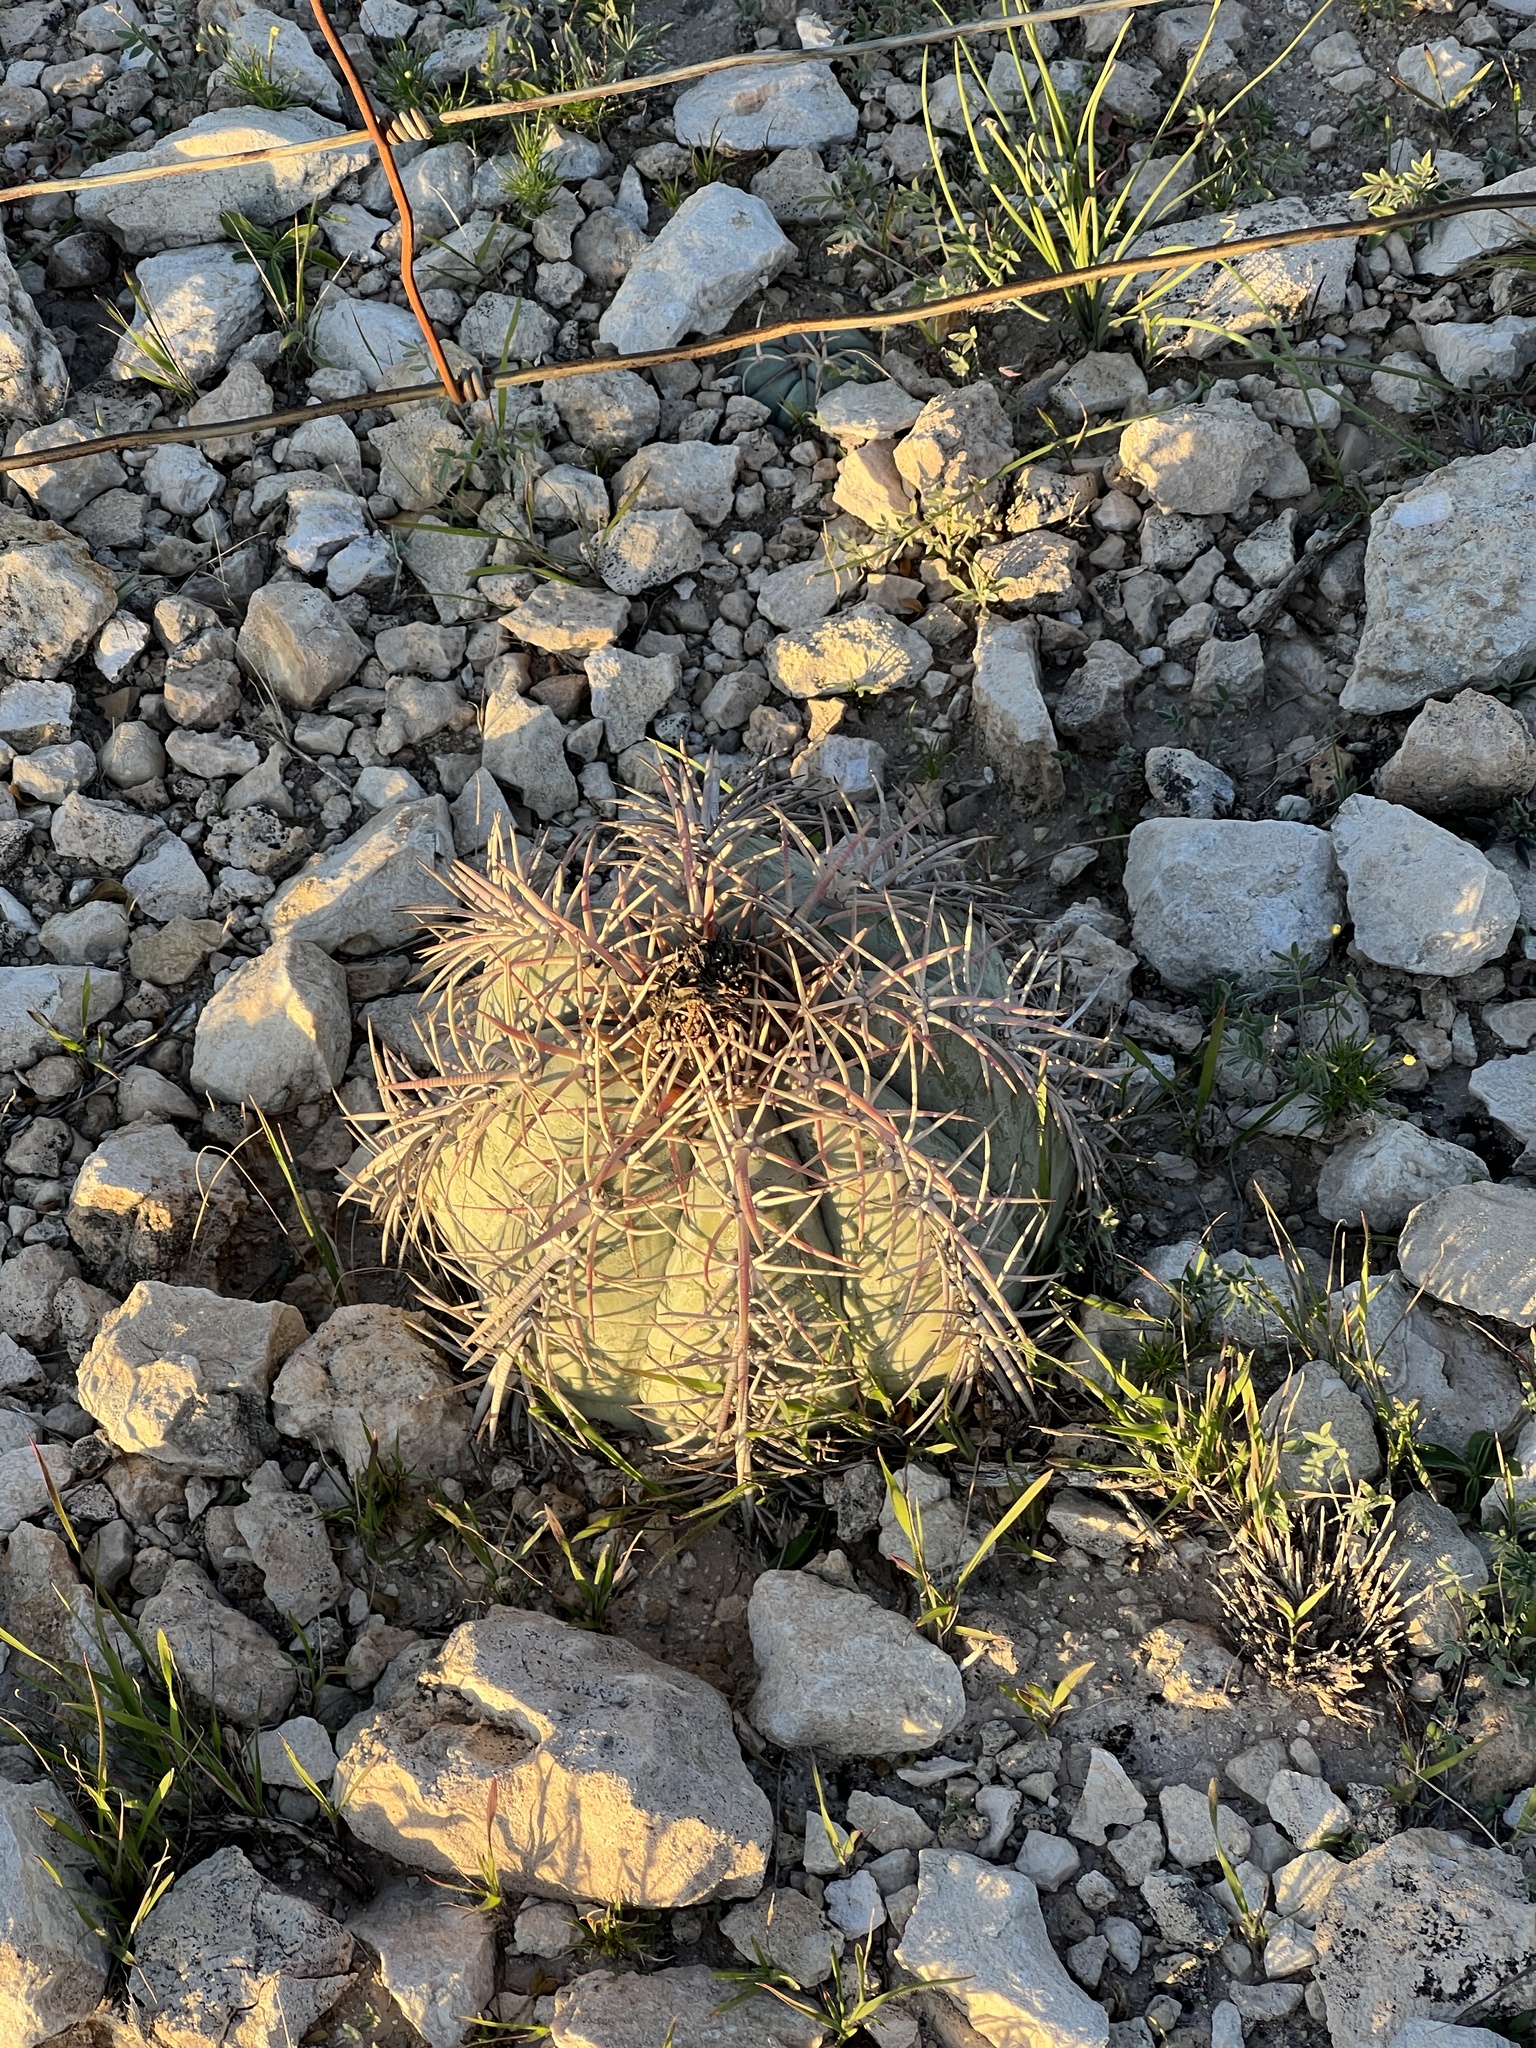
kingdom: Plantae
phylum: Tracheophyta
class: Magnoliopsida
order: Caryophyllales
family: Cactaceae
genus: Echinocactus
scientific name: Echinocactus horizonthalonius
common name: Devilshead
